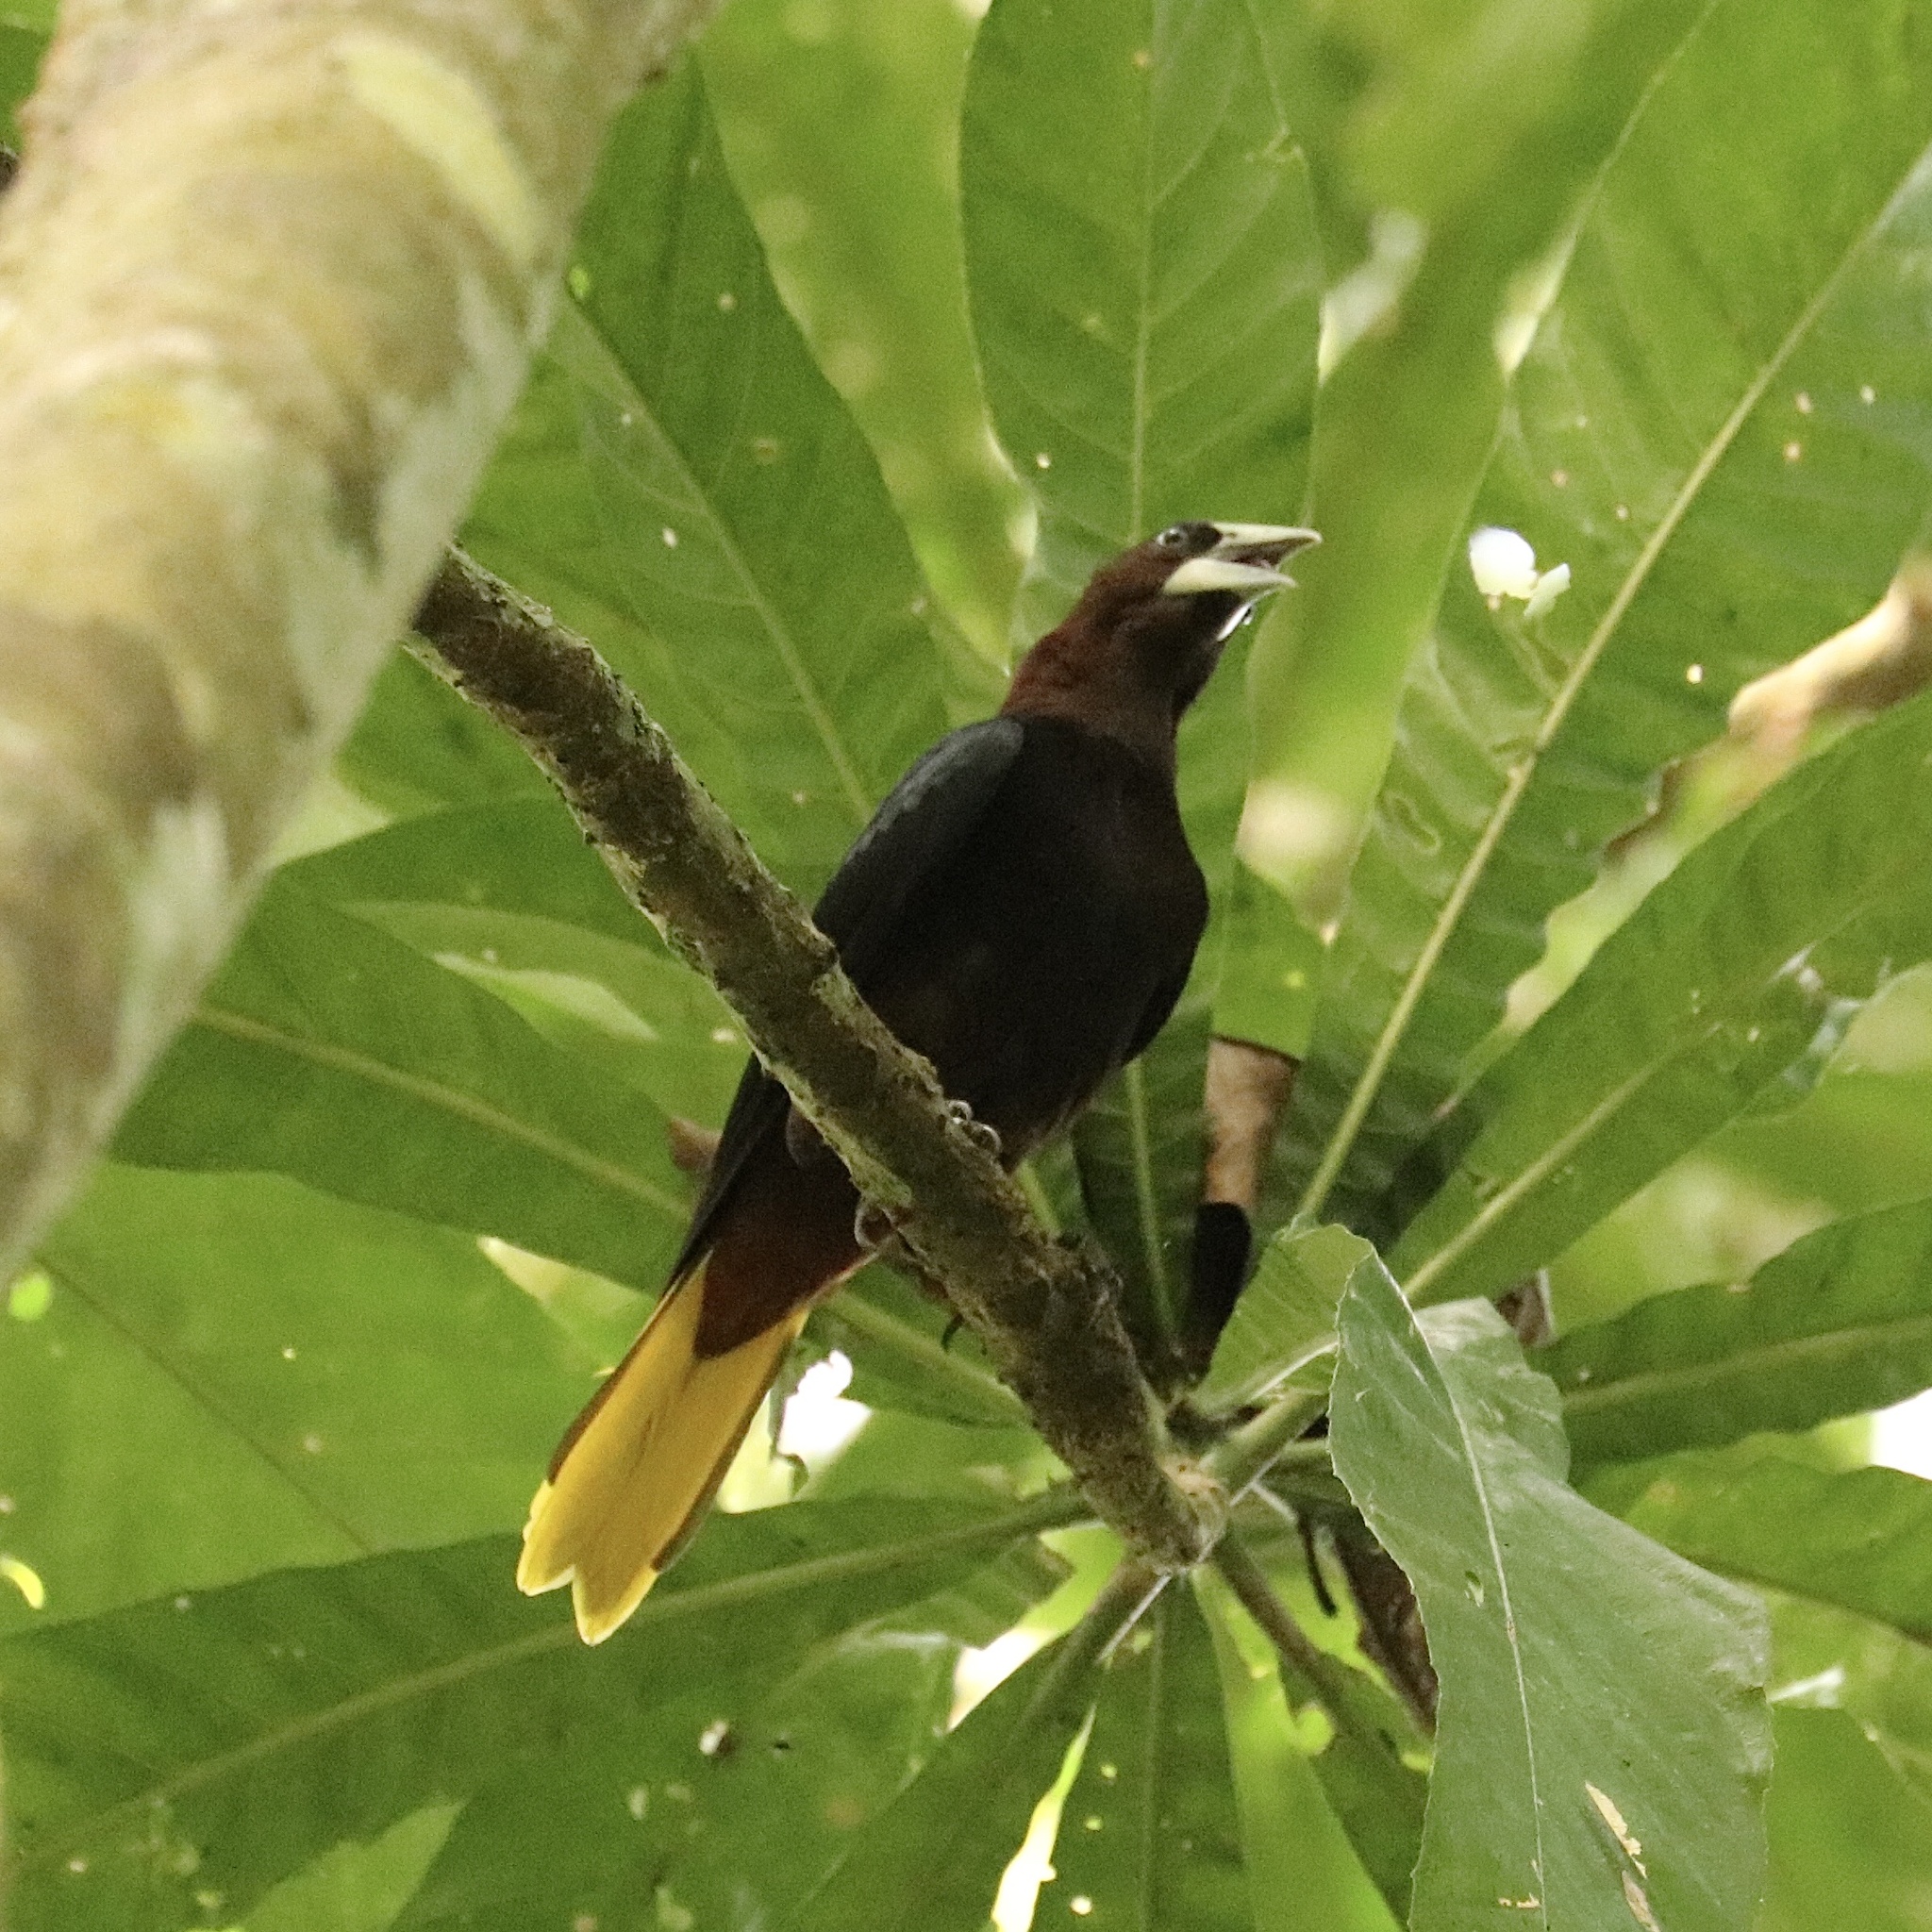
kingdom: Animalia
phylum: Chordata
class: Aves
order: Passeriformes
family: Icteridae
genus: Psarocolius
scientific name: Psarocolius wagleri
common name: Chestnut-headed oropendola
